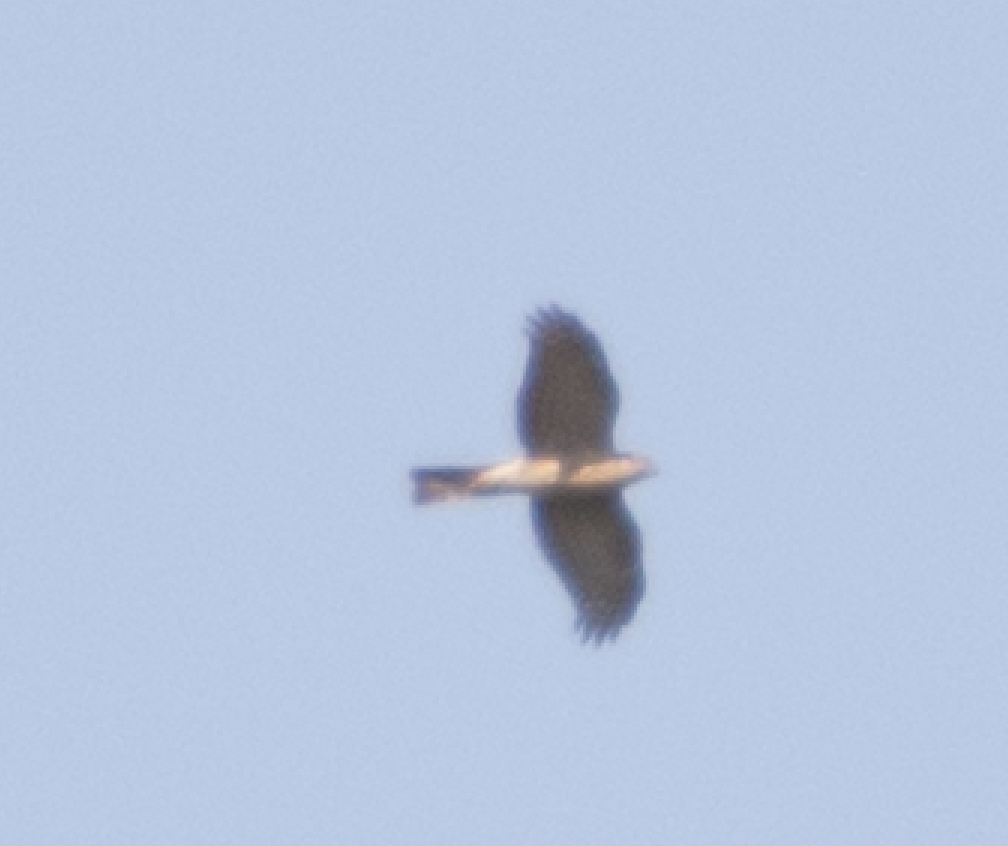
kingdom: Animalia
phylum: Chordata
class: Aves
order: Accipitriformes
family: Accipitridae
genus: Accipiter
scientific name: Accipiter nisus
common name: Eurasian sparrowhawk
